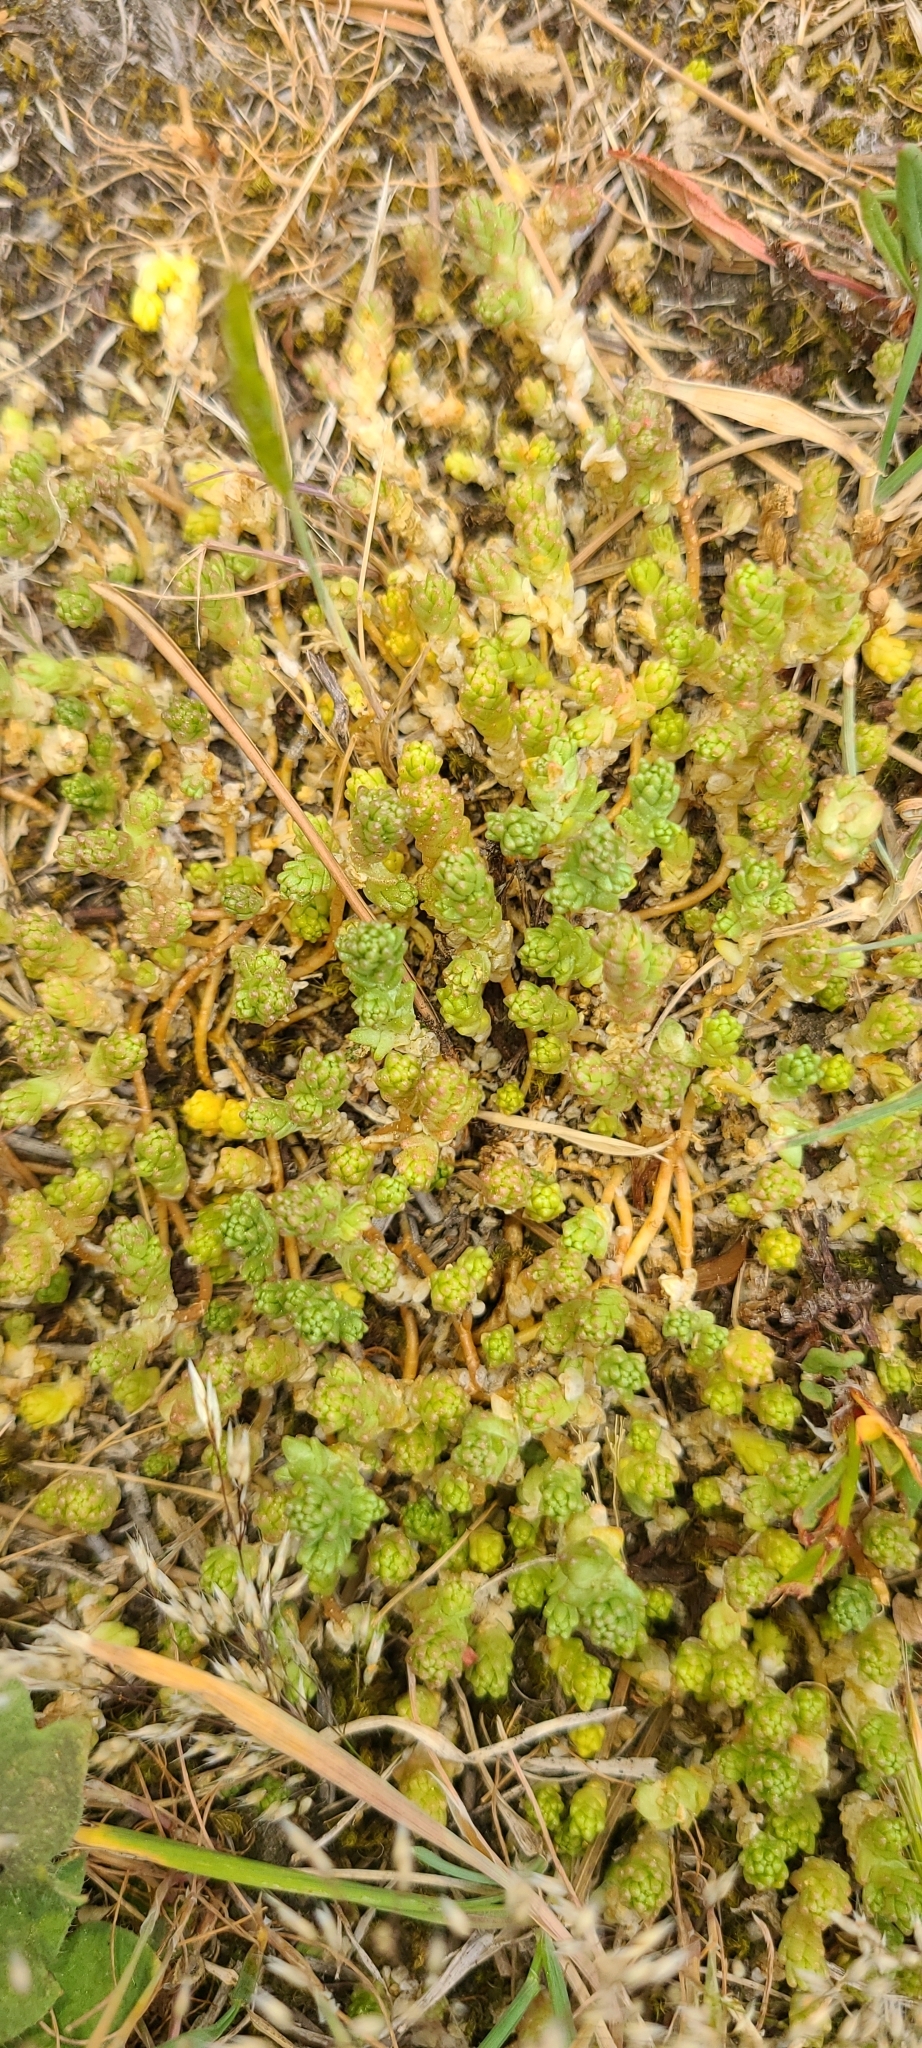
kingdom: Plantae
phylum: Tracheophyta
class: Magnoliopsida
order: Saxifragales
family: Crassulaceae
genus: Sedum
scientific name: Sedum acre
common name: Biting stonecrop
